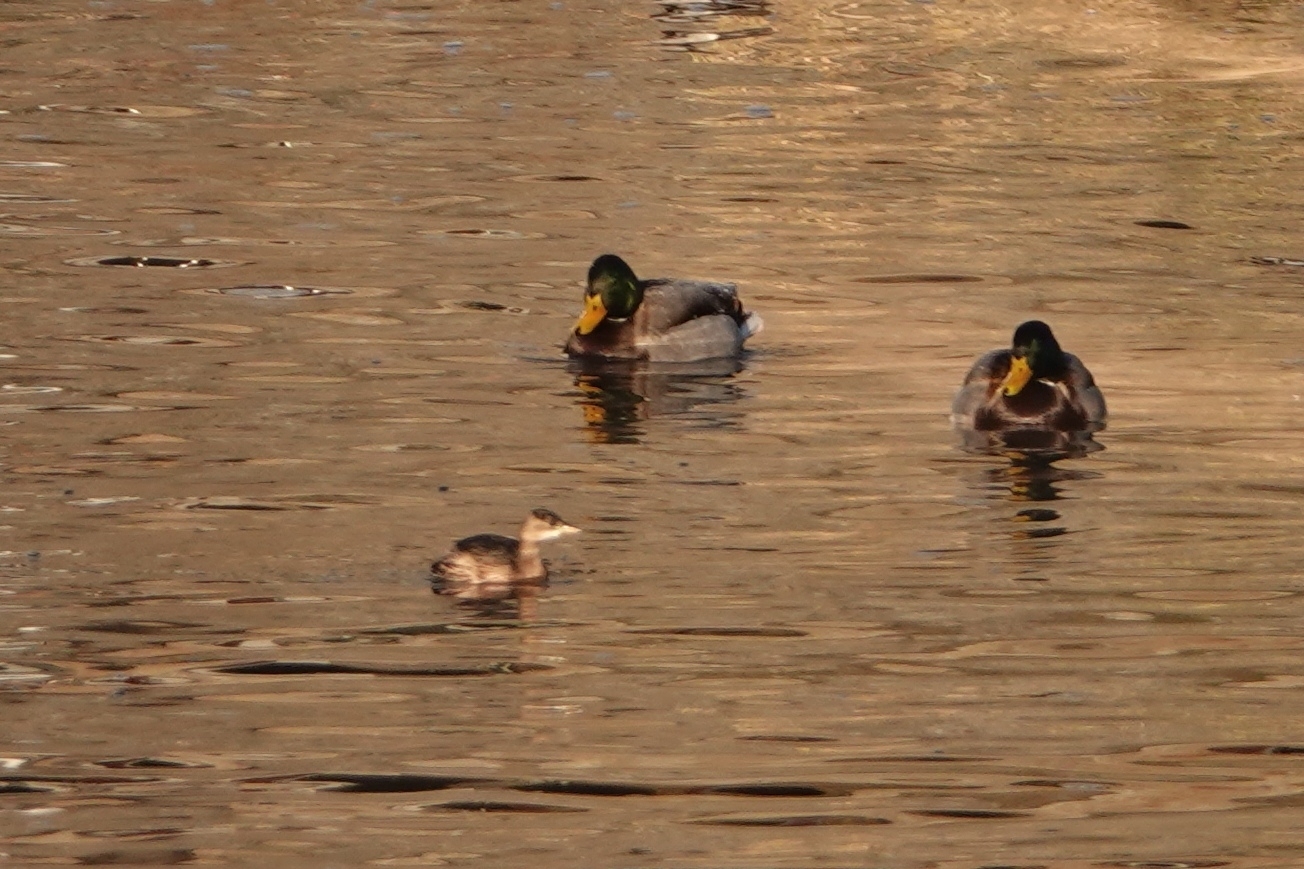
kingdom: Animalia
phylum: Chordata
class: Aves
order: Podicipediformes
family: Podicipedidae
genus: Tachybaptus
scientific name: Tachybaptus ruficollis
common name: Little grebe
